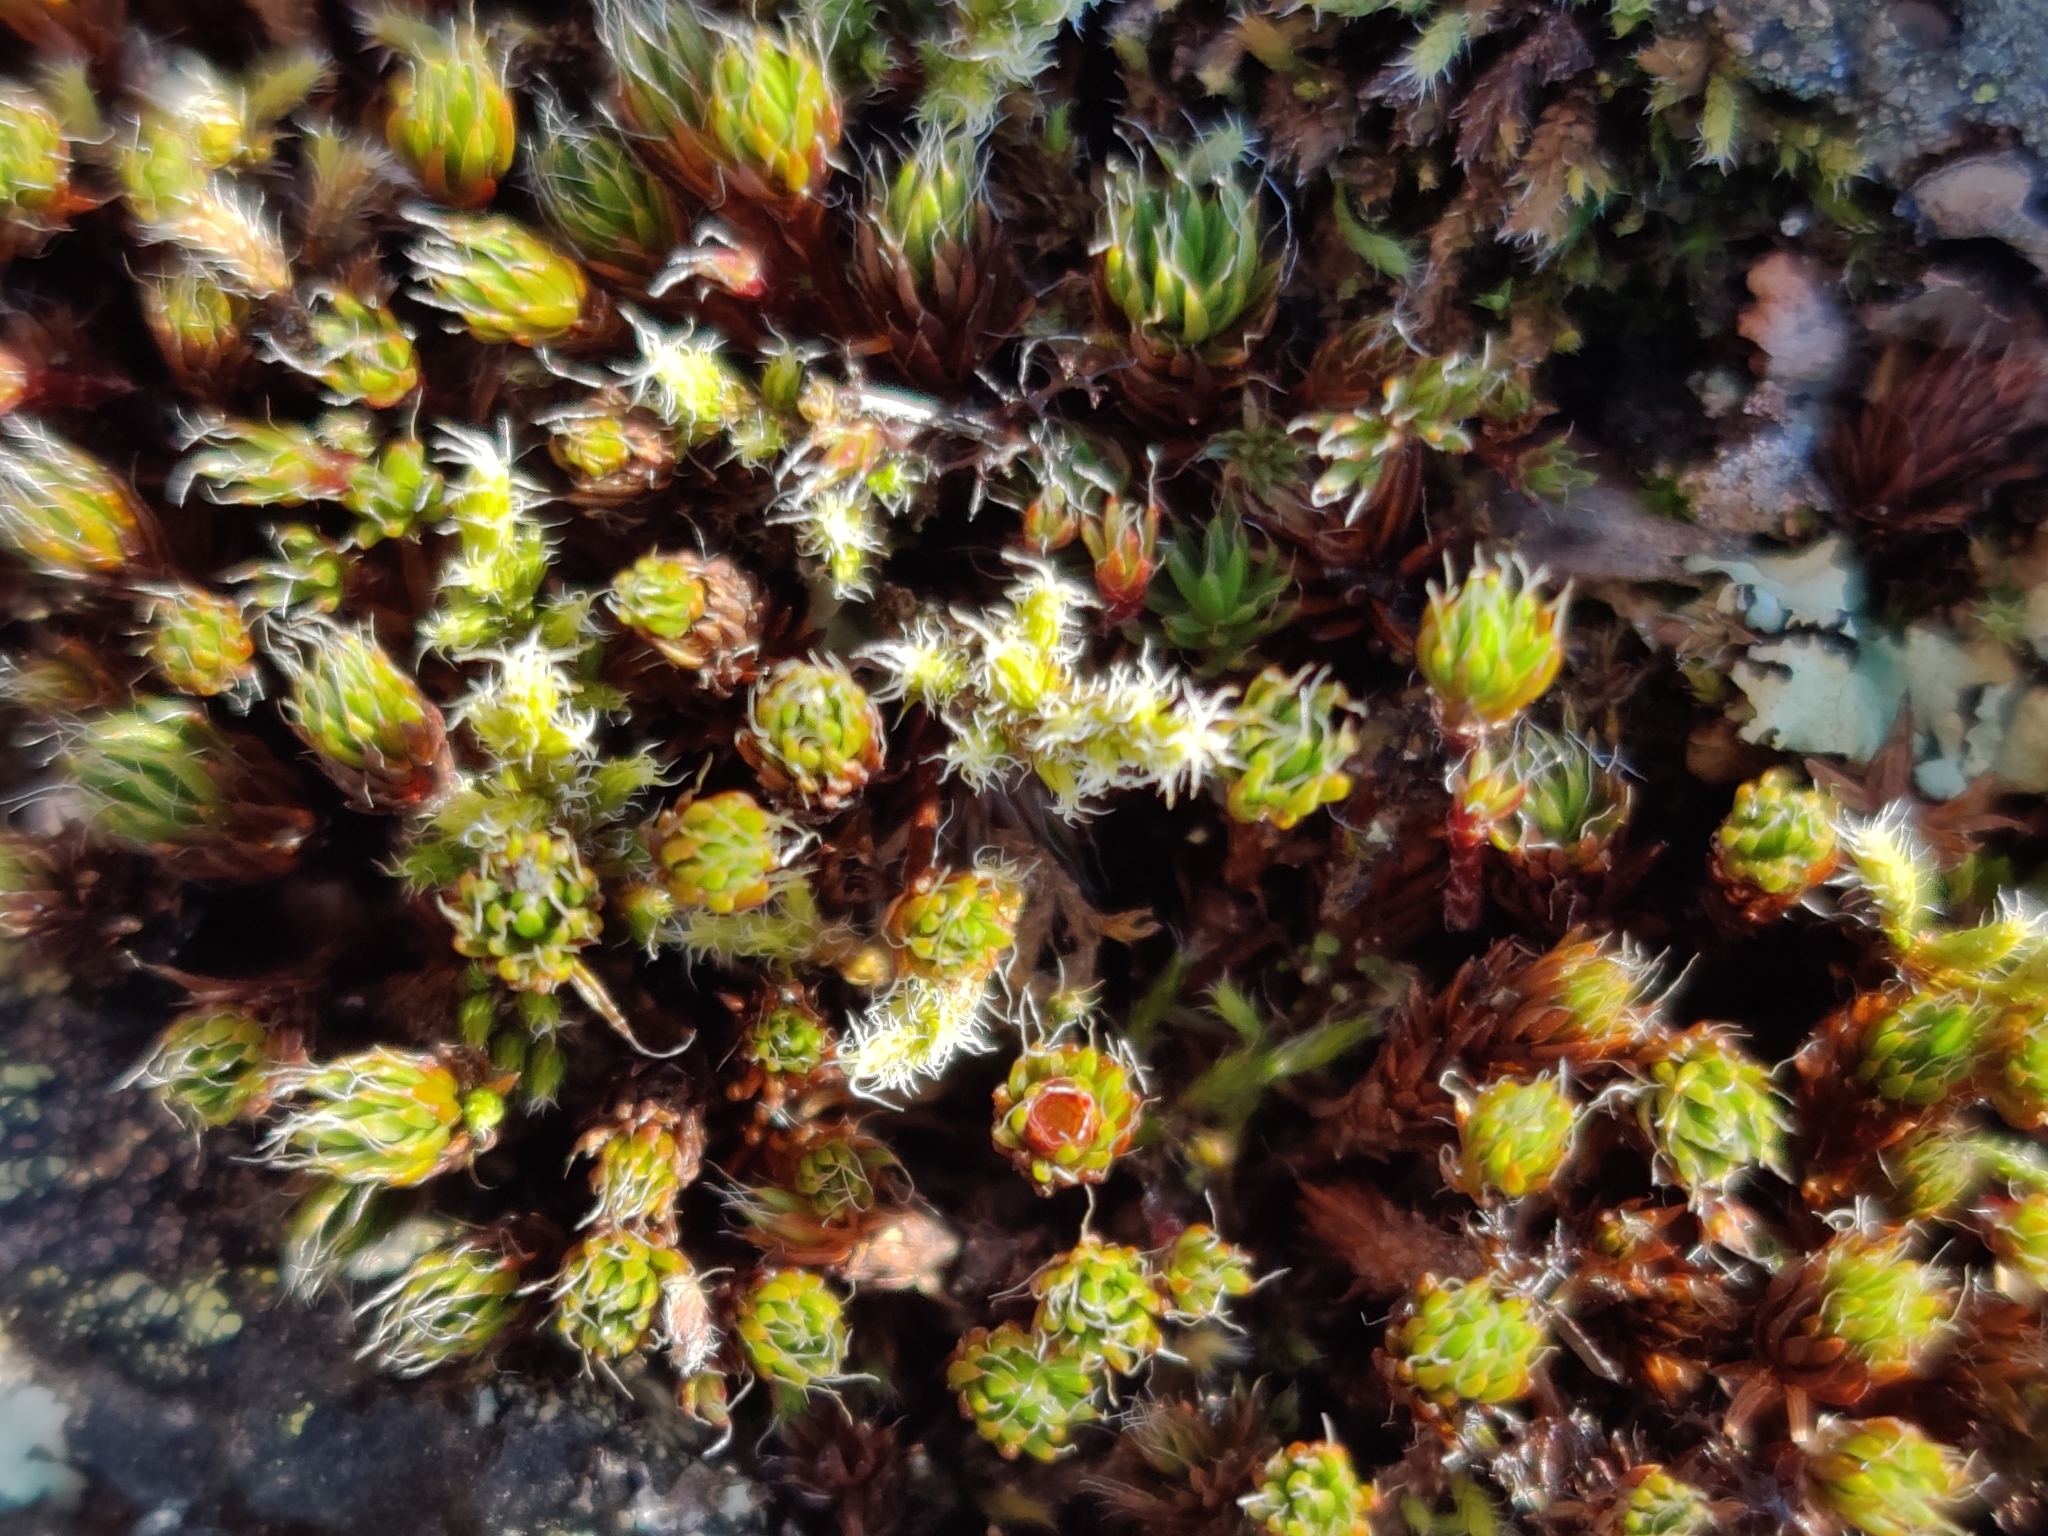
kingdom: Plantae
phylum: Bryophyta
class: Polytrichopsida
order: Polytrichales
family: Polytrichaceae
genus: Polytrichum
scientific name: Polytrichum piliferum
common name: Bristly haircap
